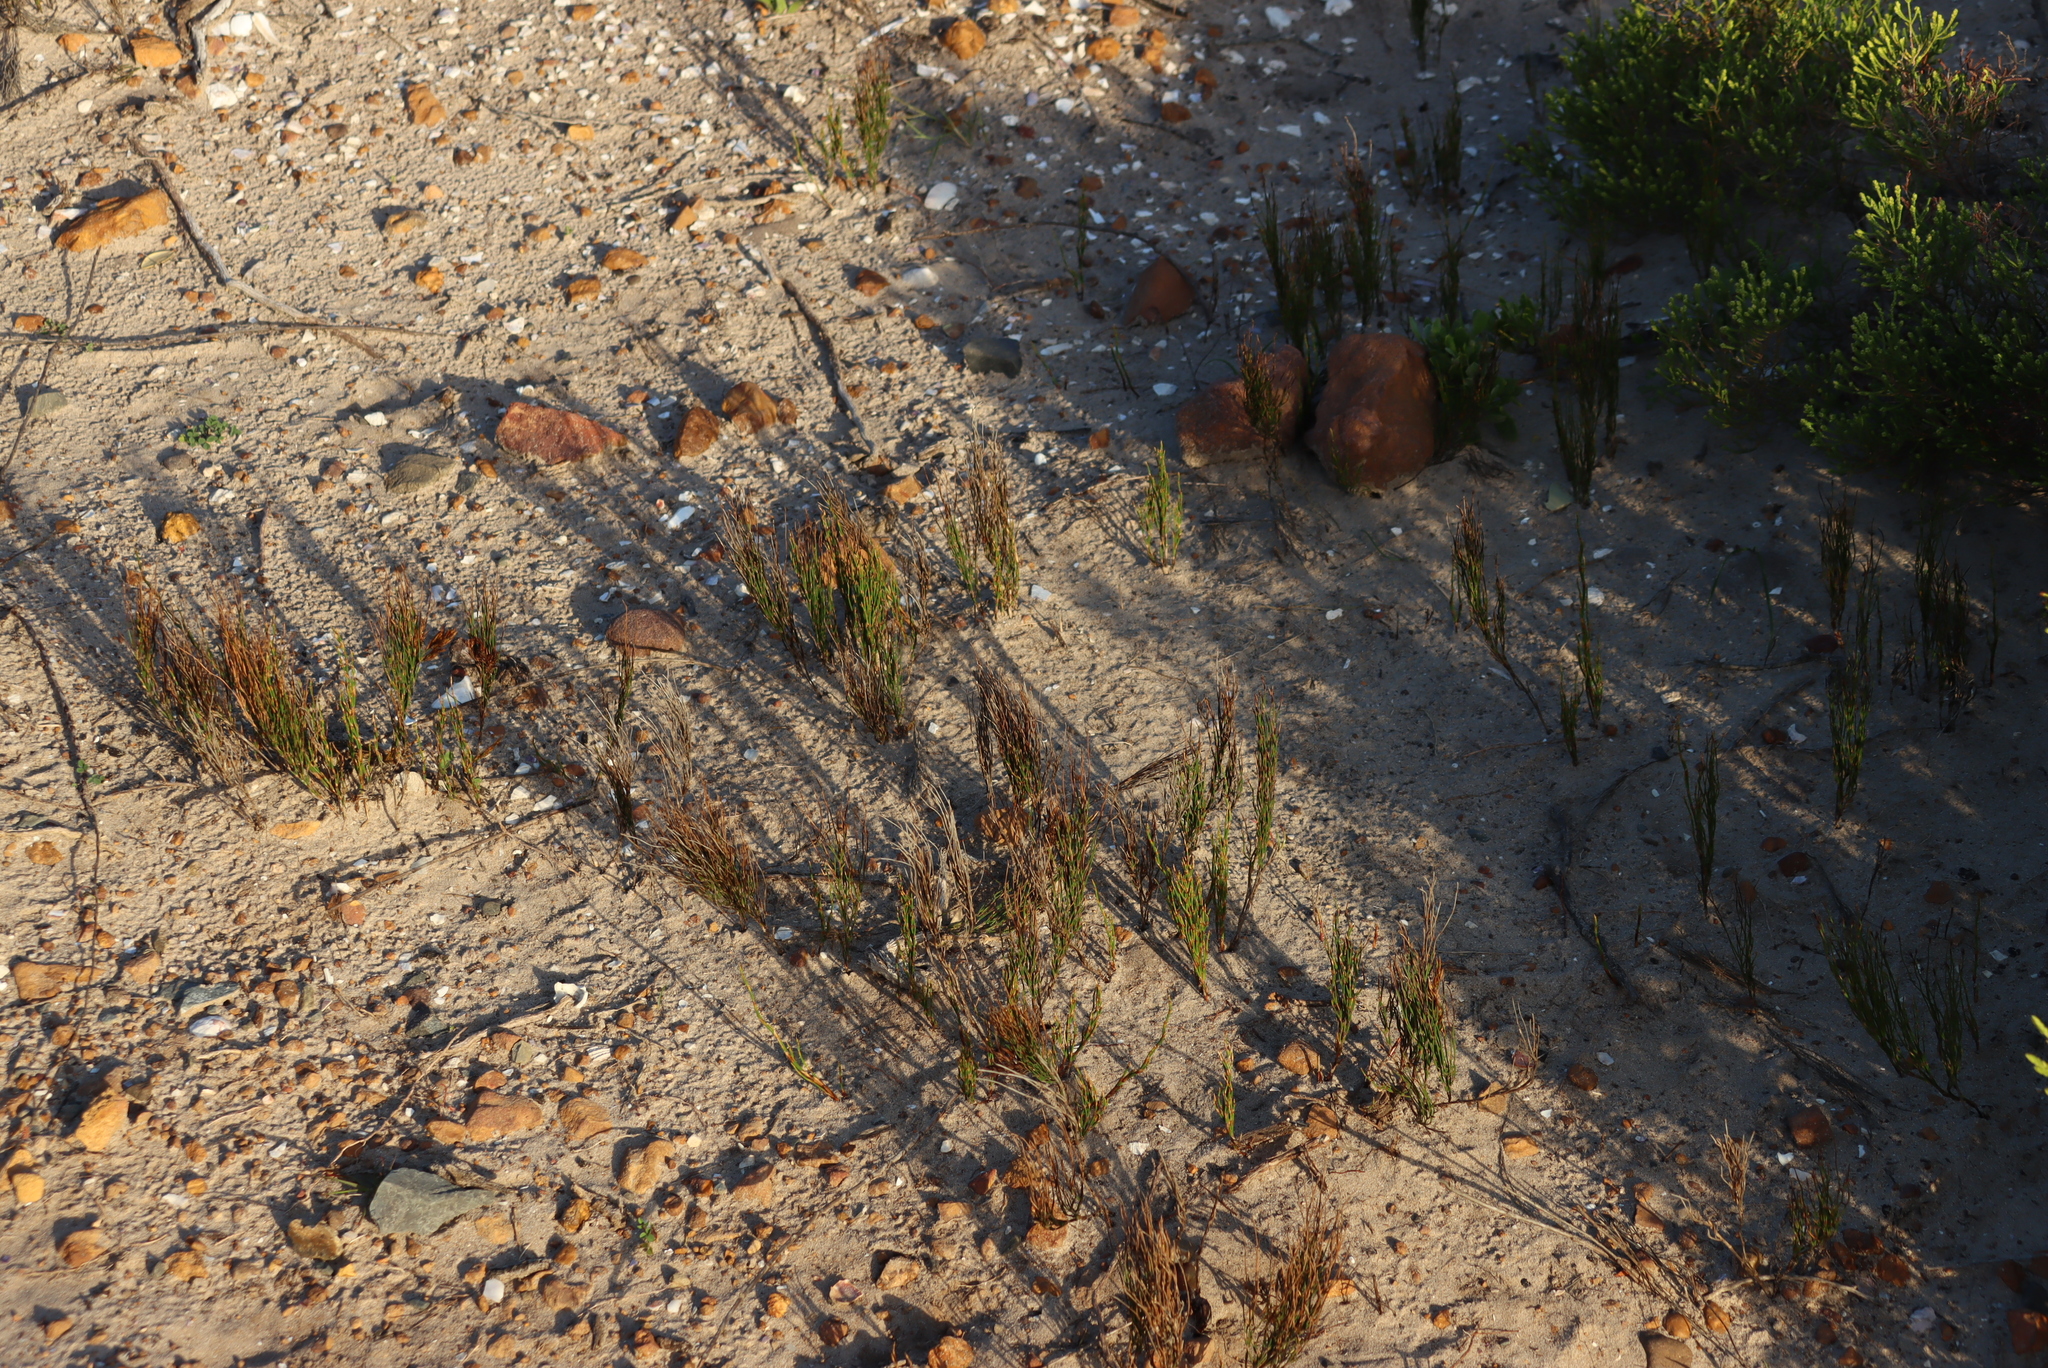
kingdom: Plantae
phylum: Tracheophyta
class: Liliopsida
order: Poales
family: Restionaceae
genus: Restio
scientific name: Restio eleocharis
